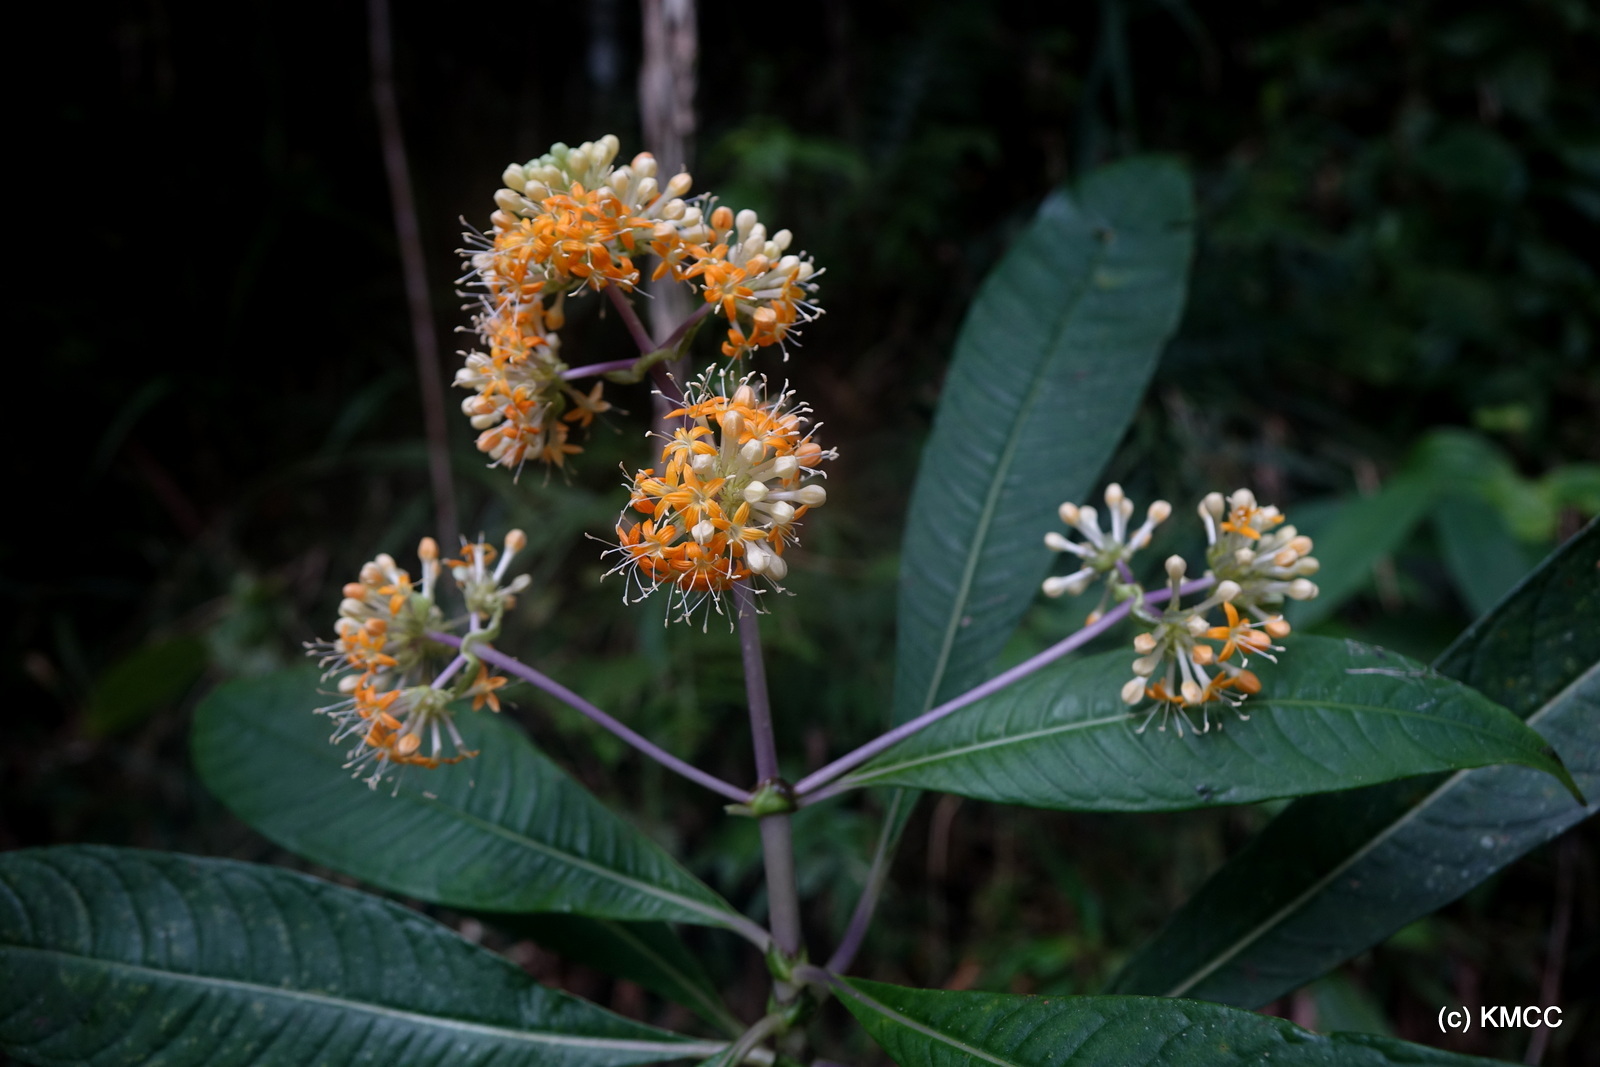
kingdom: Plantae
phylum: Tracheophyta
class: Magnoliopsida
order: Gentianales
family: Rubiaceae
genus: Schismatoclada
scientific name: Schismatoclada farahimpensis
